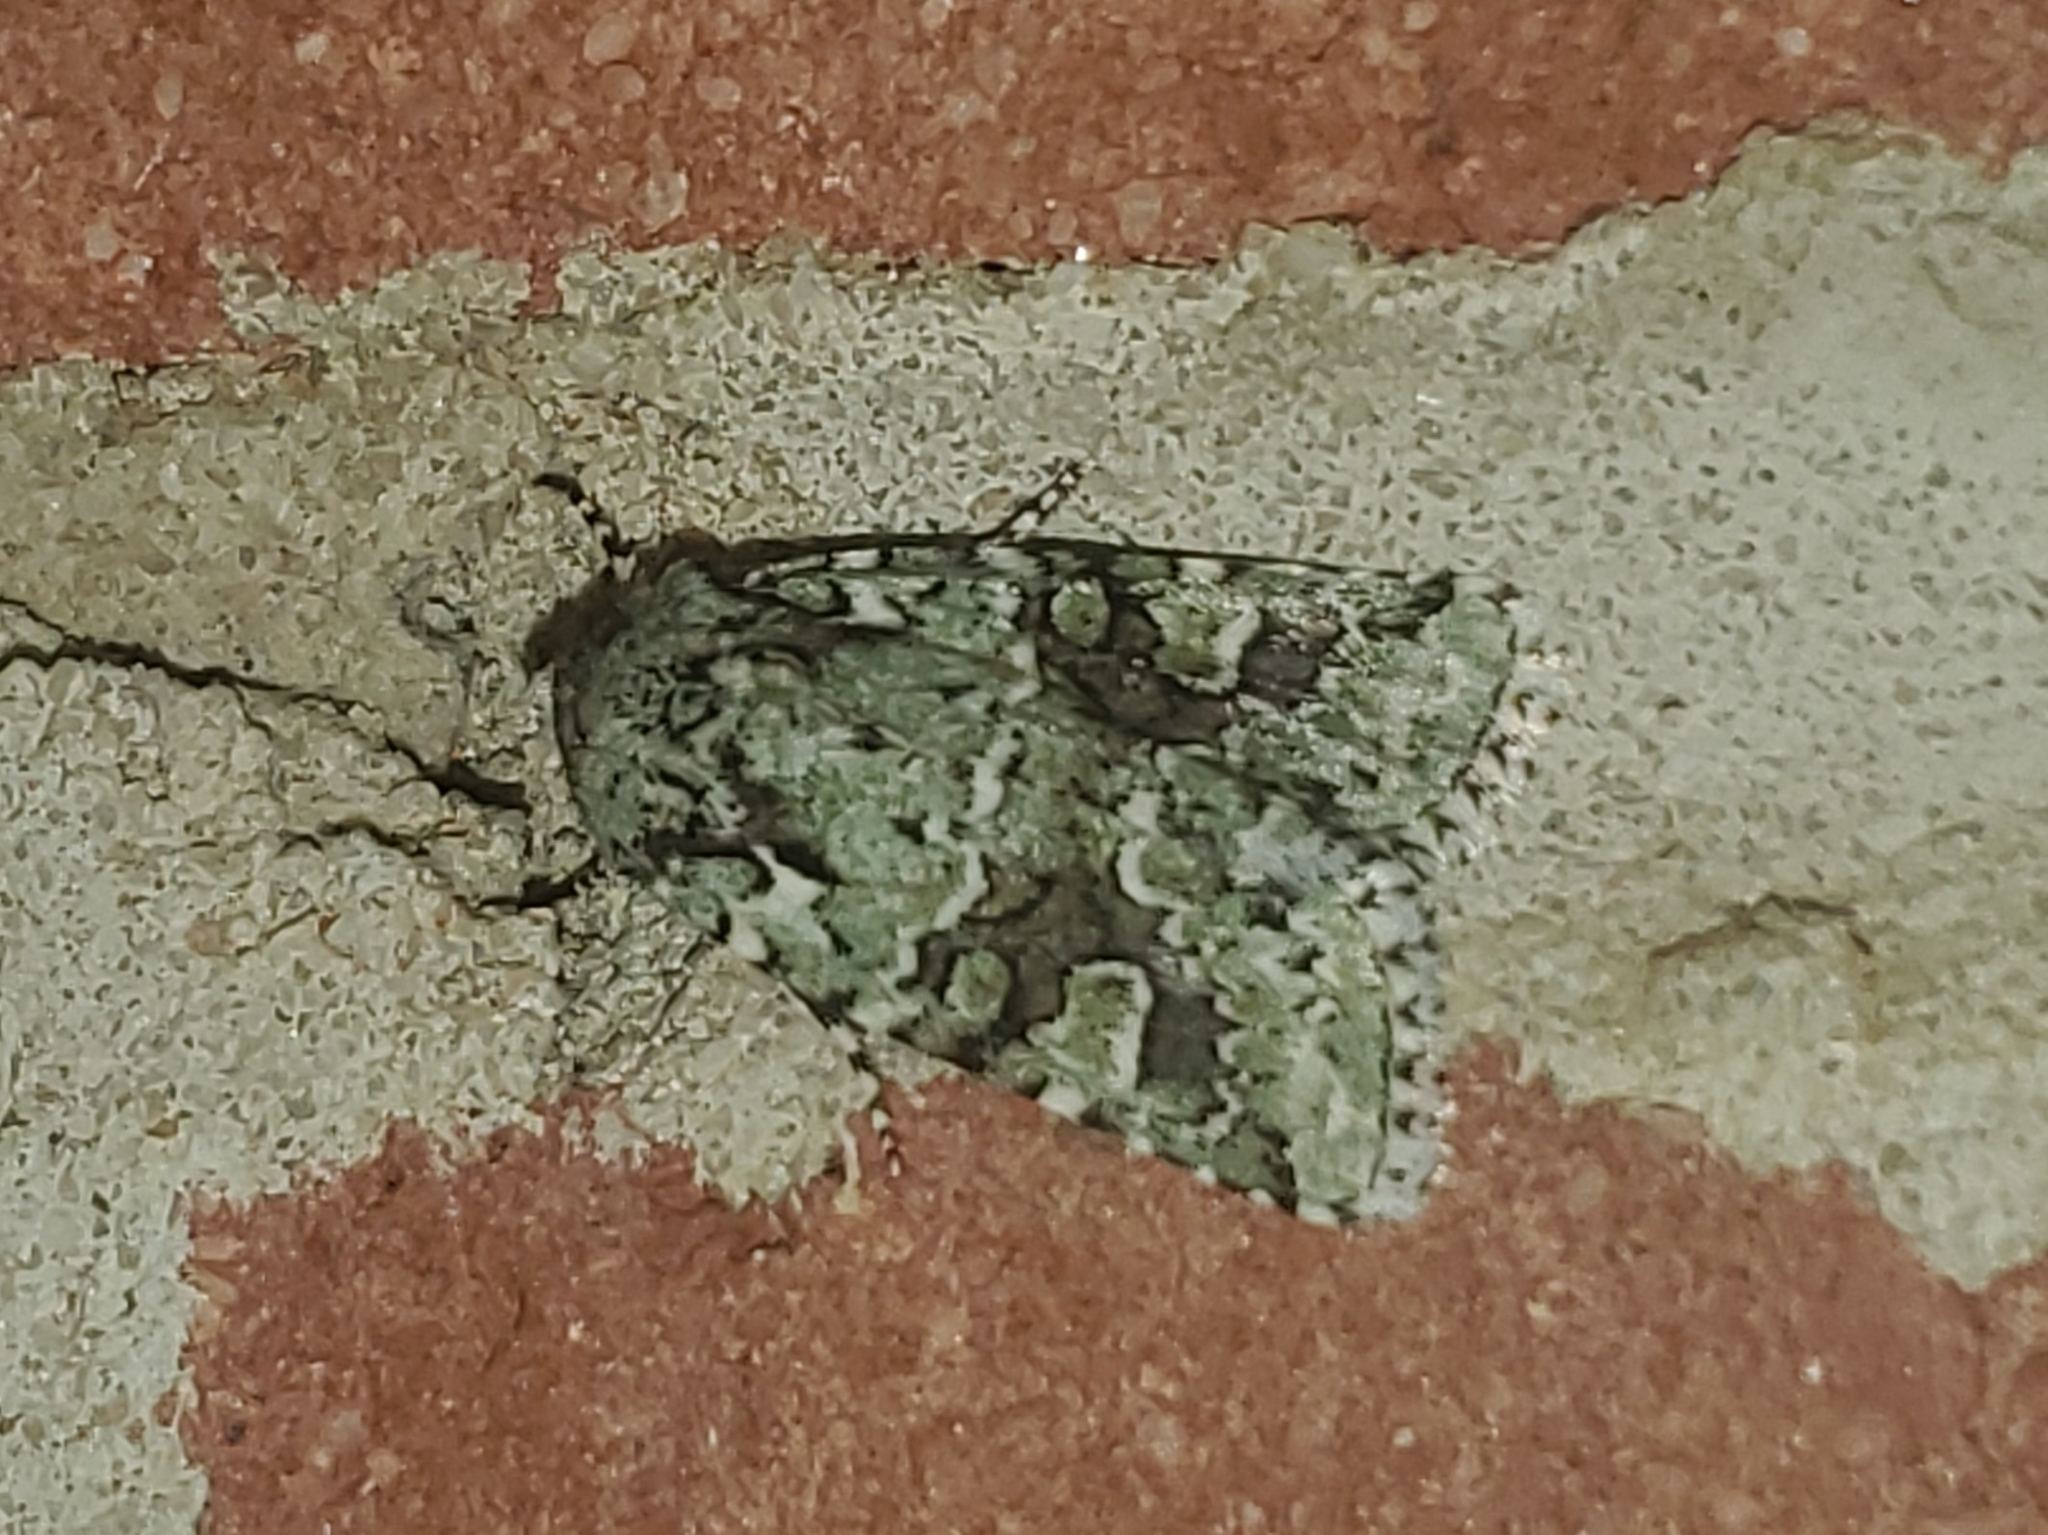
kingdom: Animalia
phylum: Arthropoda
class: Insecta
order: Lepidoptera
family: Noctuidae
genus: Lacinipolia
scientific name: Lacinipolia laudabilis
